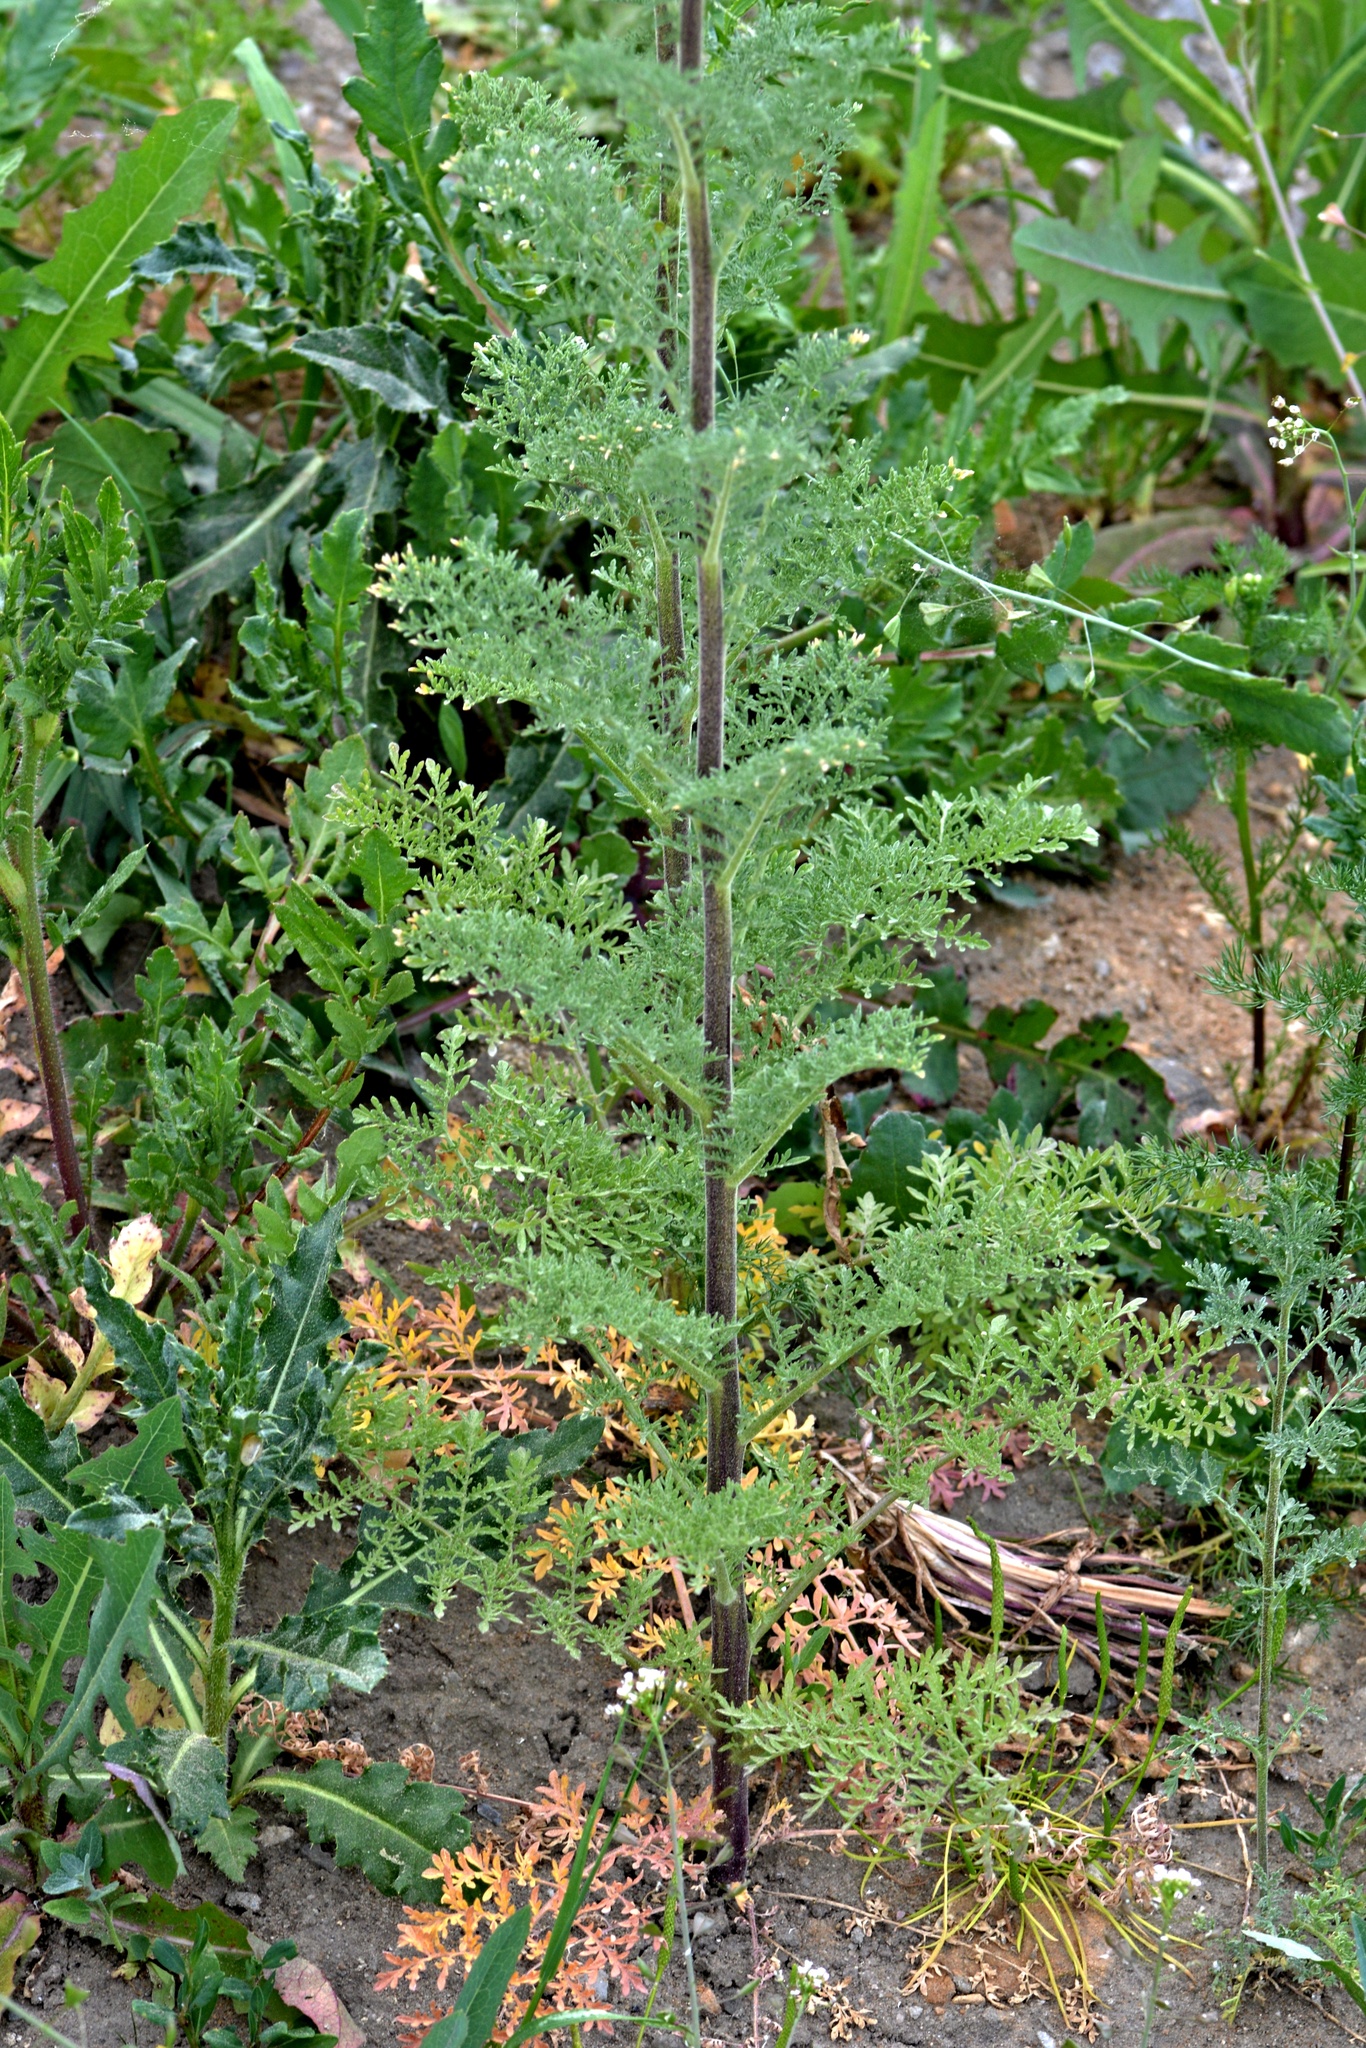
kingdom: Plantae
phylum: Tracheophyta
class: Magnoliopsida
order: Brassicales
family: Brassicaceae
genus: Descurainia
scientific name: Descurainia sophia
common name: Flixweed
